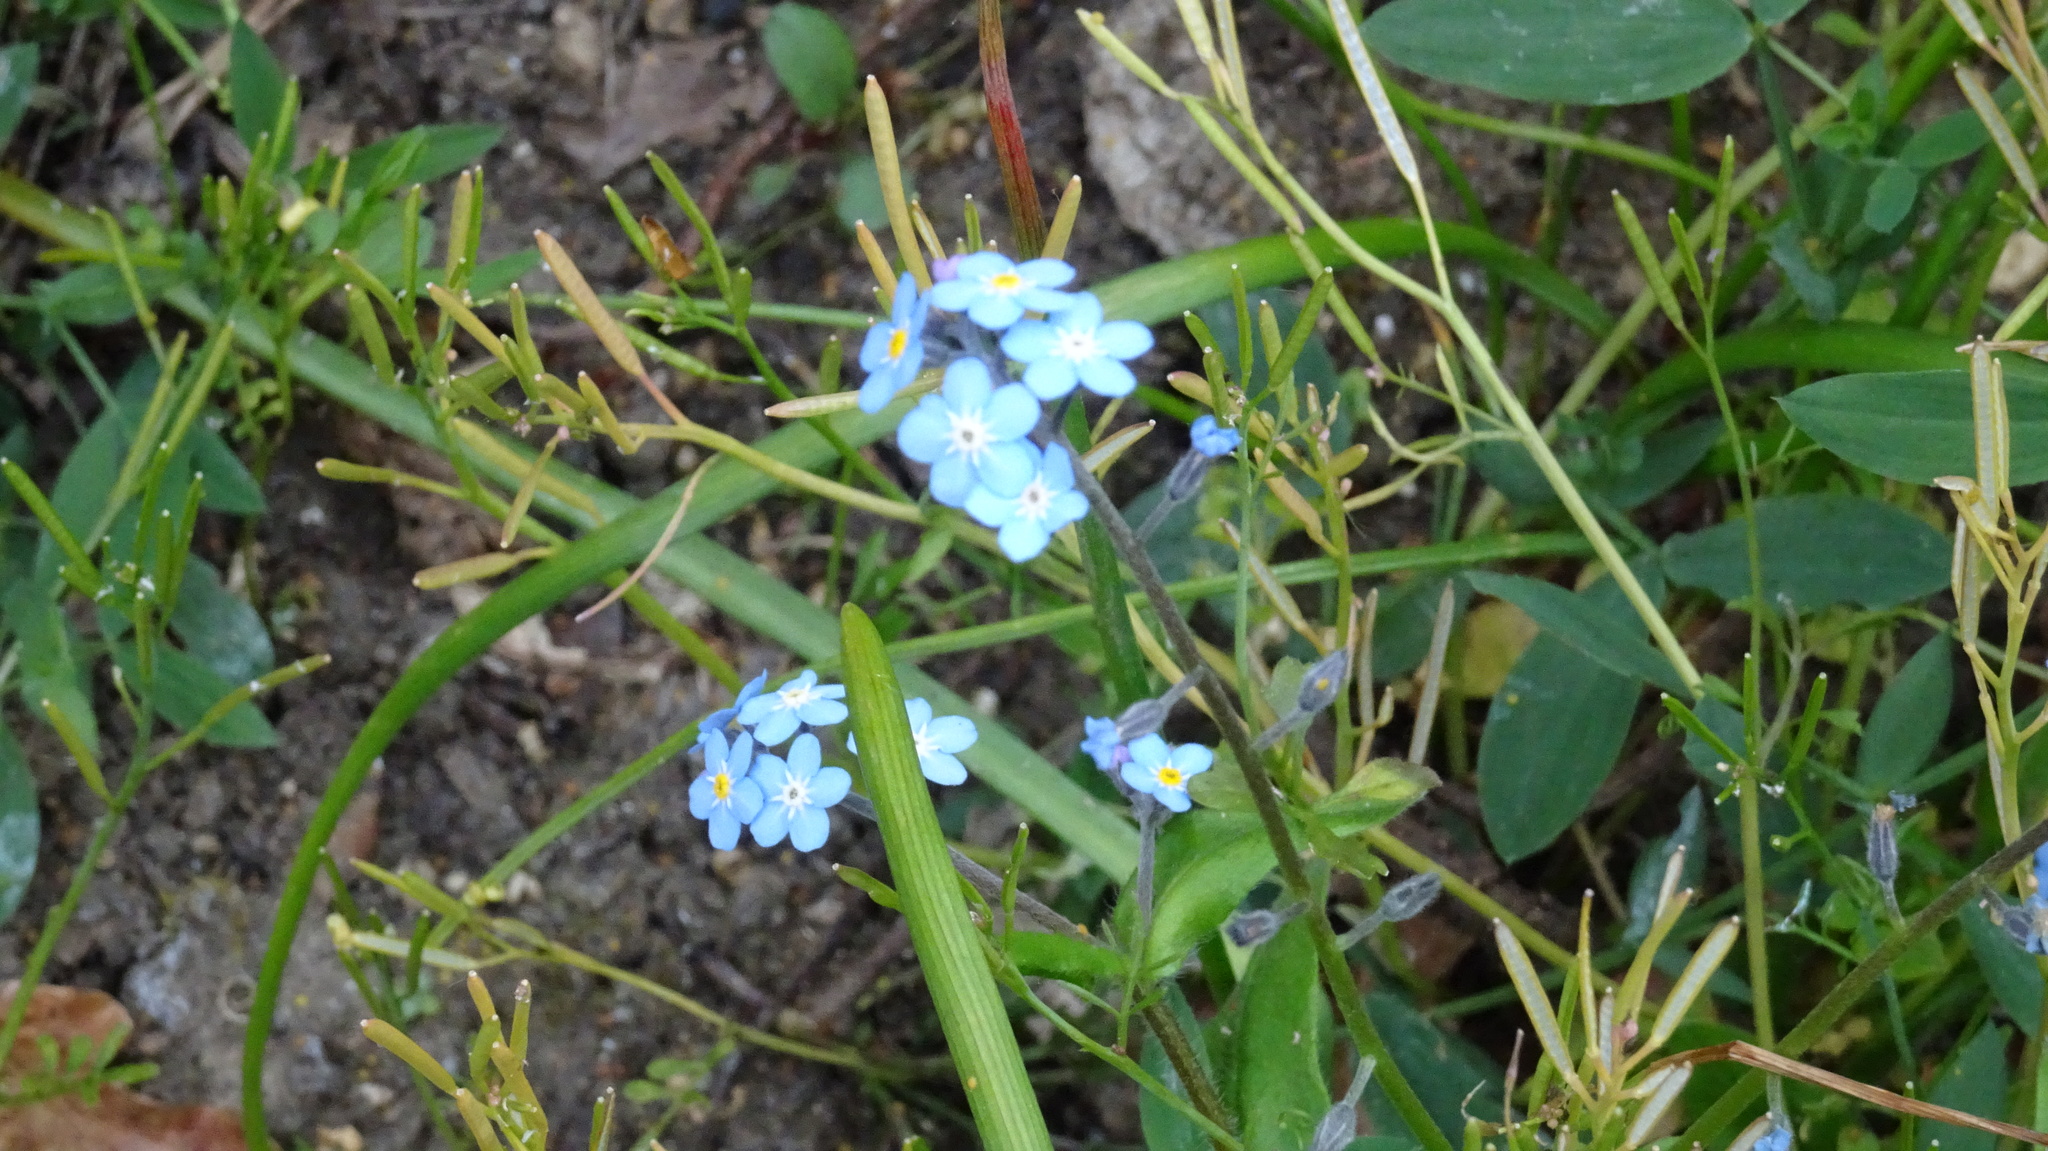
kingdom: Plantae
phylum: Tracheophyta
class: Magnoliopsida
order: Boraginales
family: Boraginaceae
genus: Myosotis
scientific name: Myosotis sylvatica
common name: Wood forget-me-not
